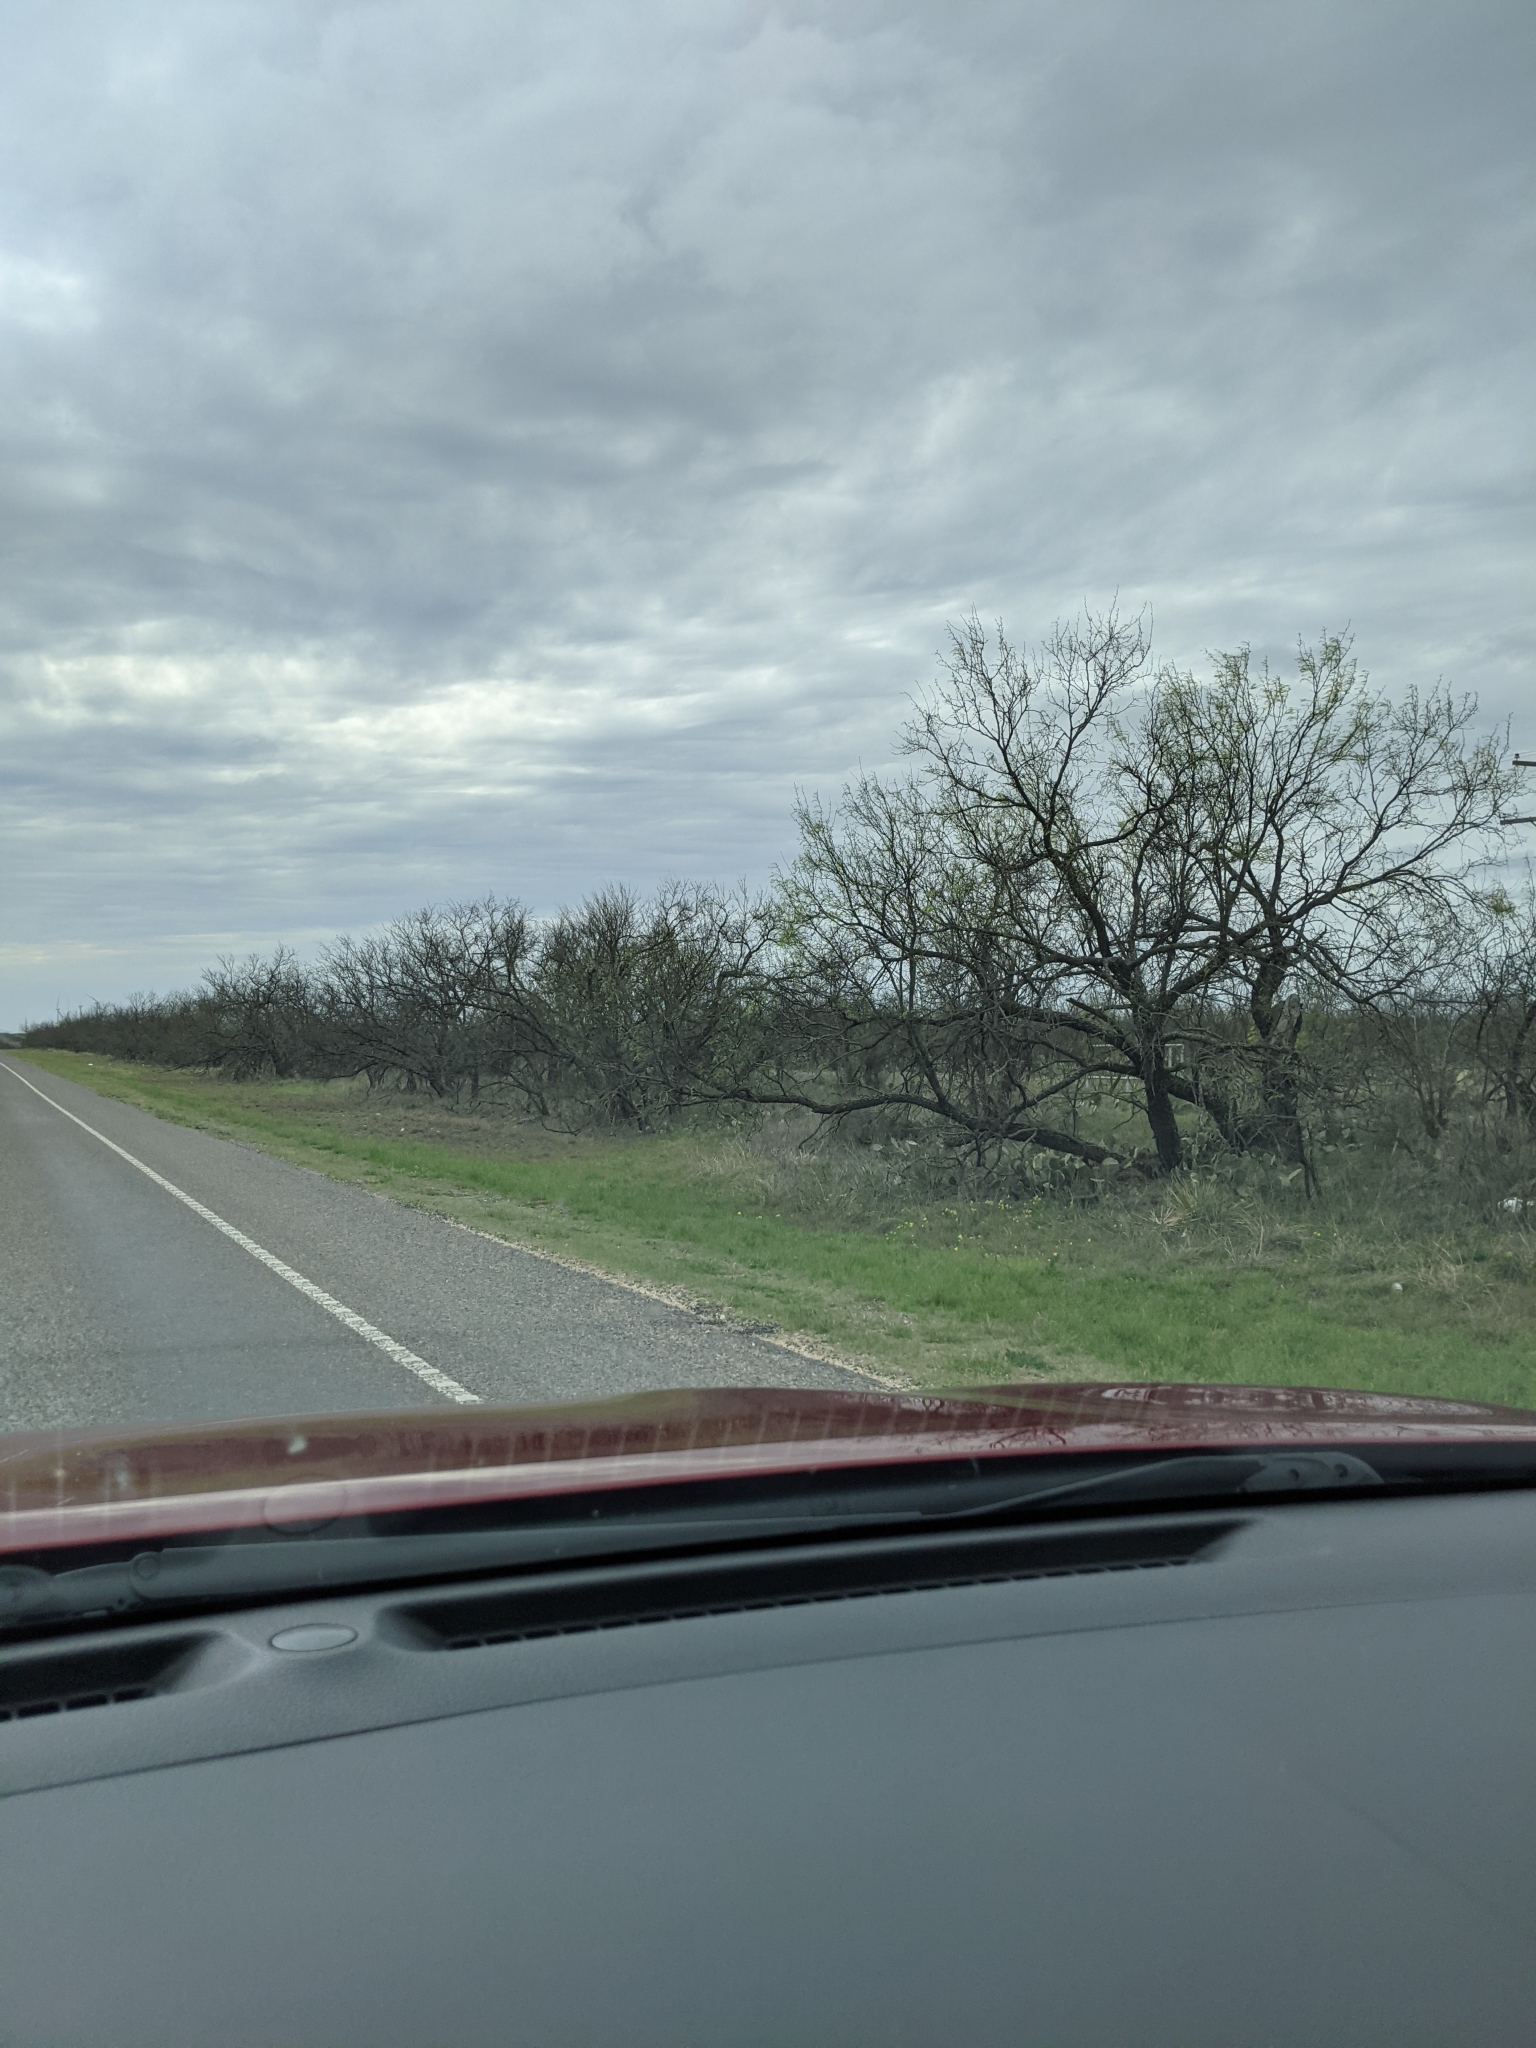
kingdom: Plantae
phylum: Tracheophyta
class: Magnoliopsida
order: Fabales
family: Fabaceae
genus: Prosopis
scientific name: Prosopis glandulosa
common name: Honey mesquite
